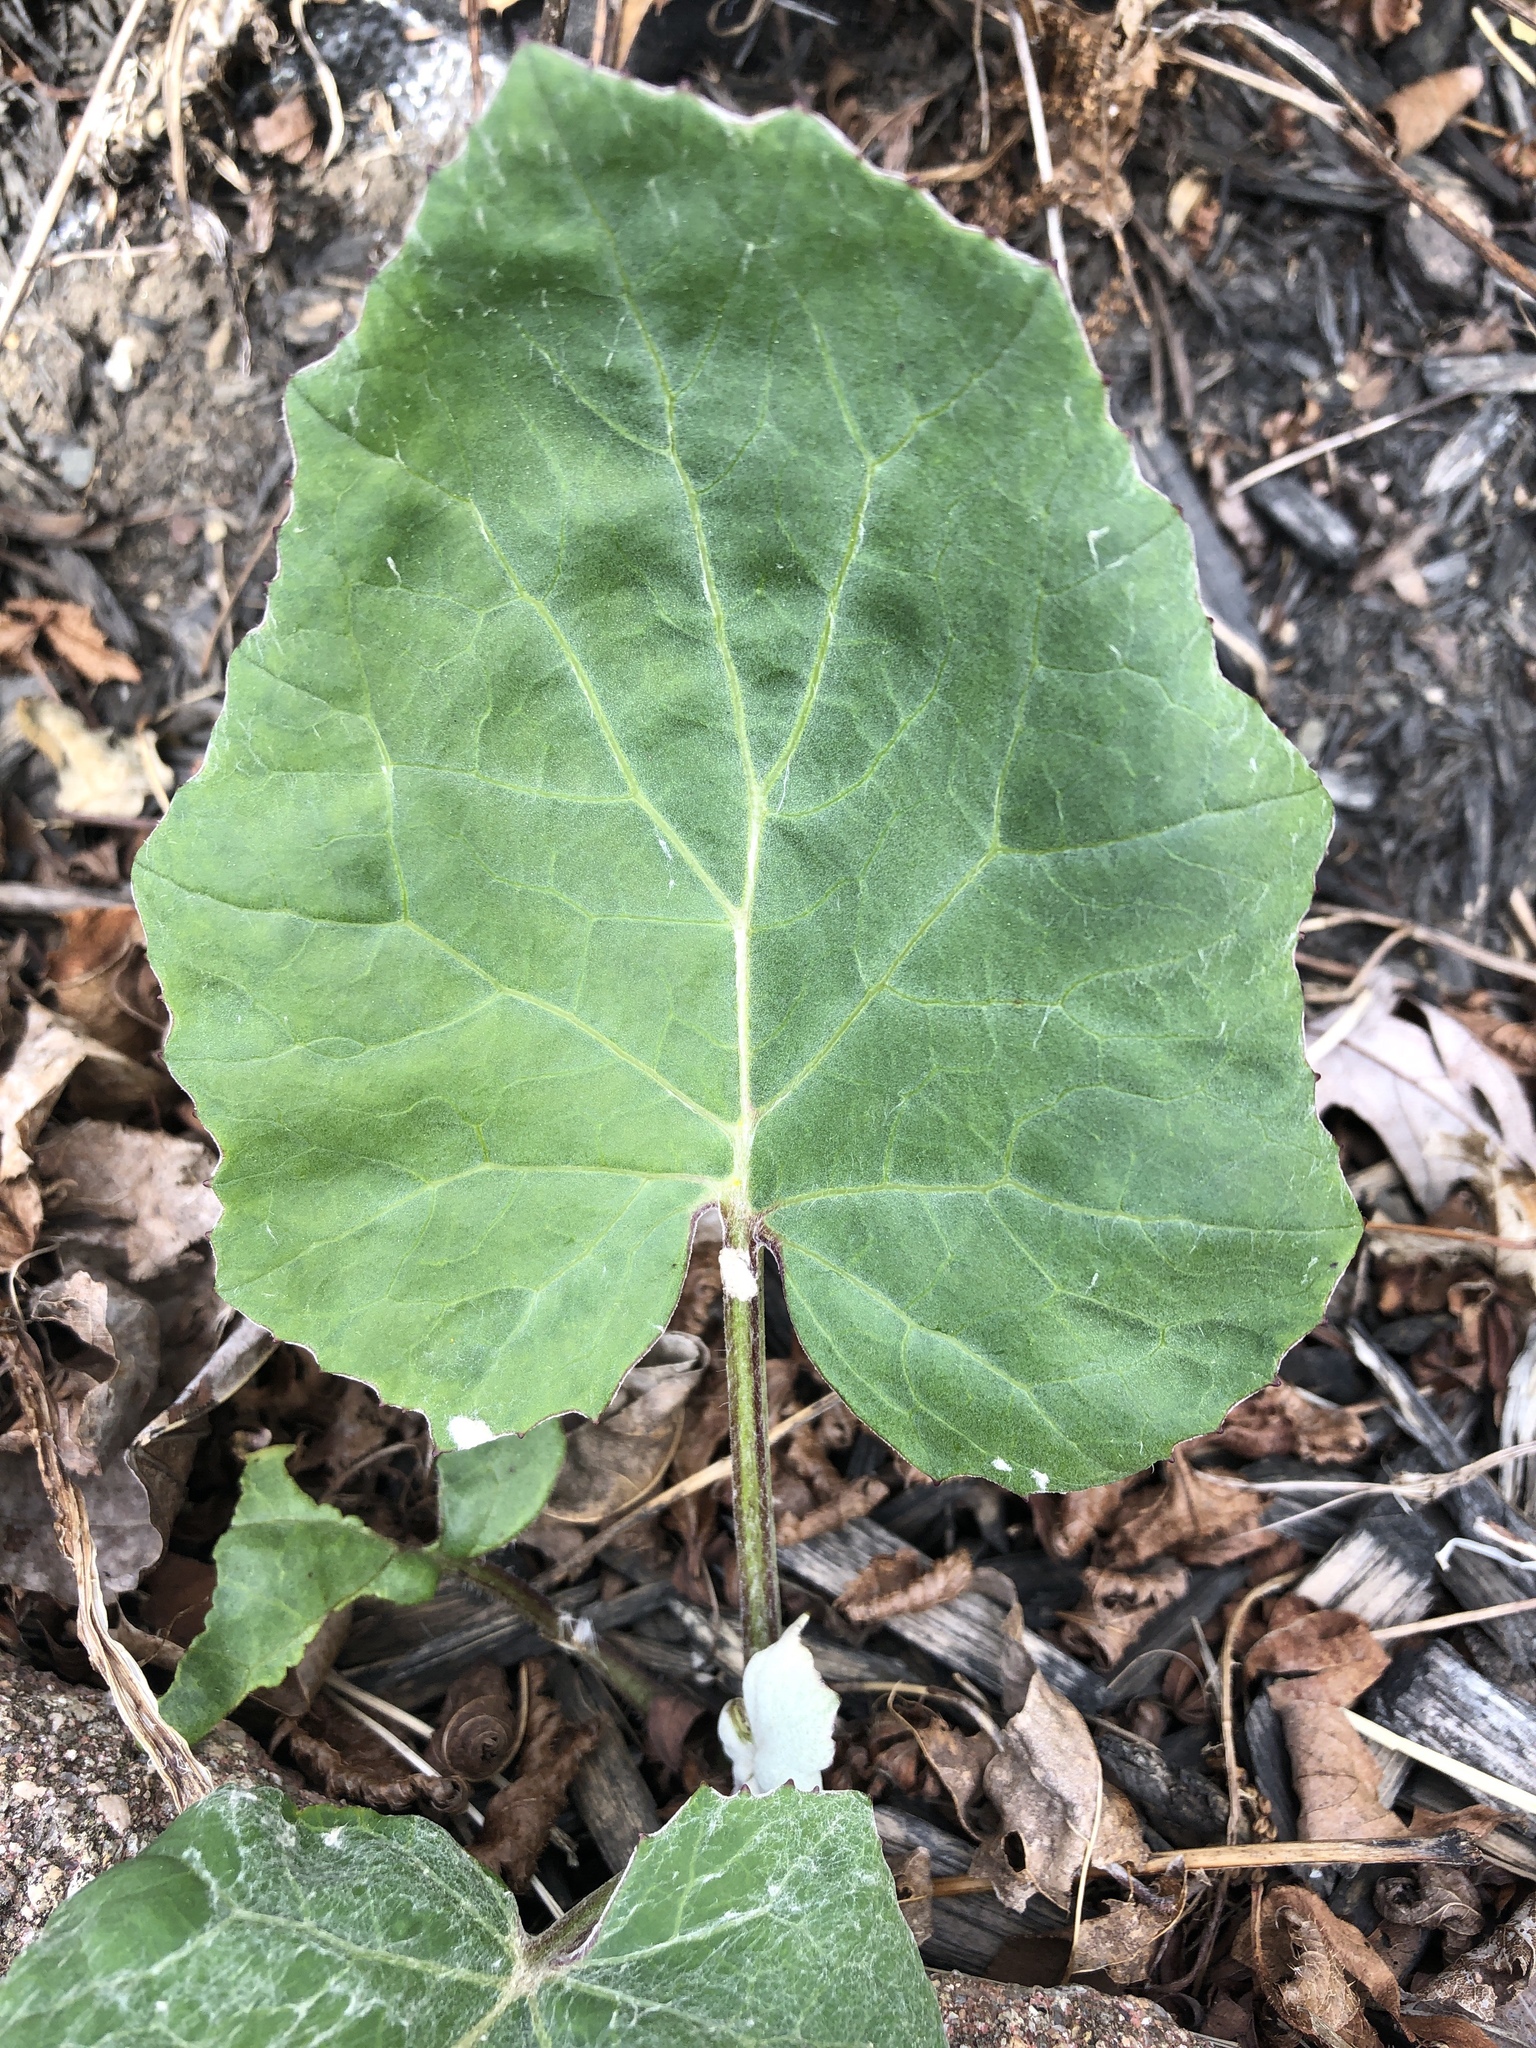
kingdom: Plantae
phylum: Tracheophyta
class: Magnoliopsida
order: Asterales
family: Asteraceae
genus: Tussilago
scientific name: Tussilago farfara
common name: Coltsfoot
